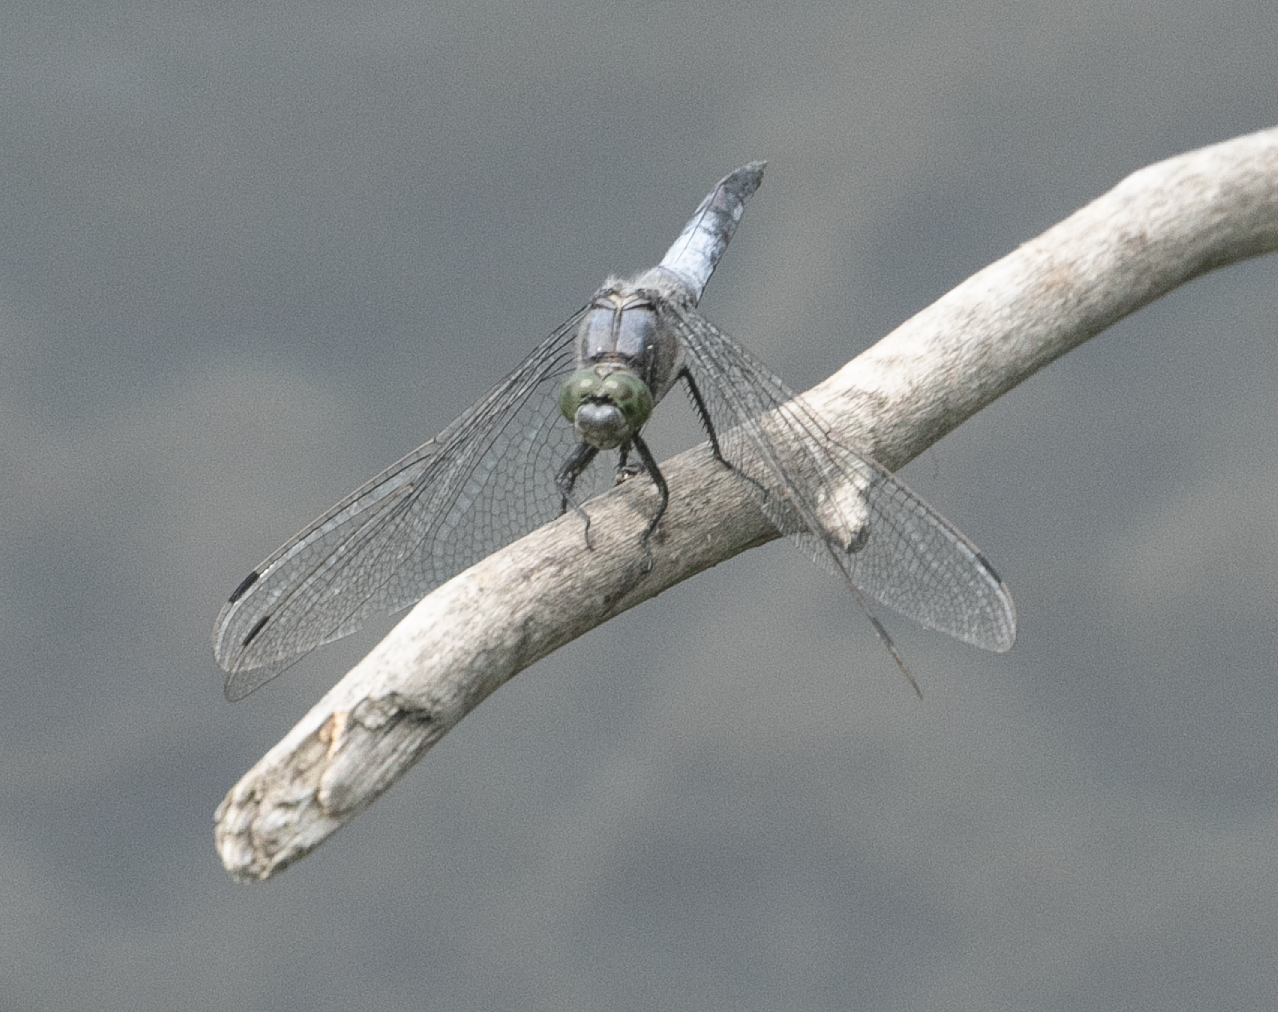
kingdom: Animalia
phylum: Arthropoda
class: Insecta
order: Odonata
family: Libellulidae
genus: Orthetrum
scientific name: Orthetrum cancellatum
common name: Black-tailed skimmer
